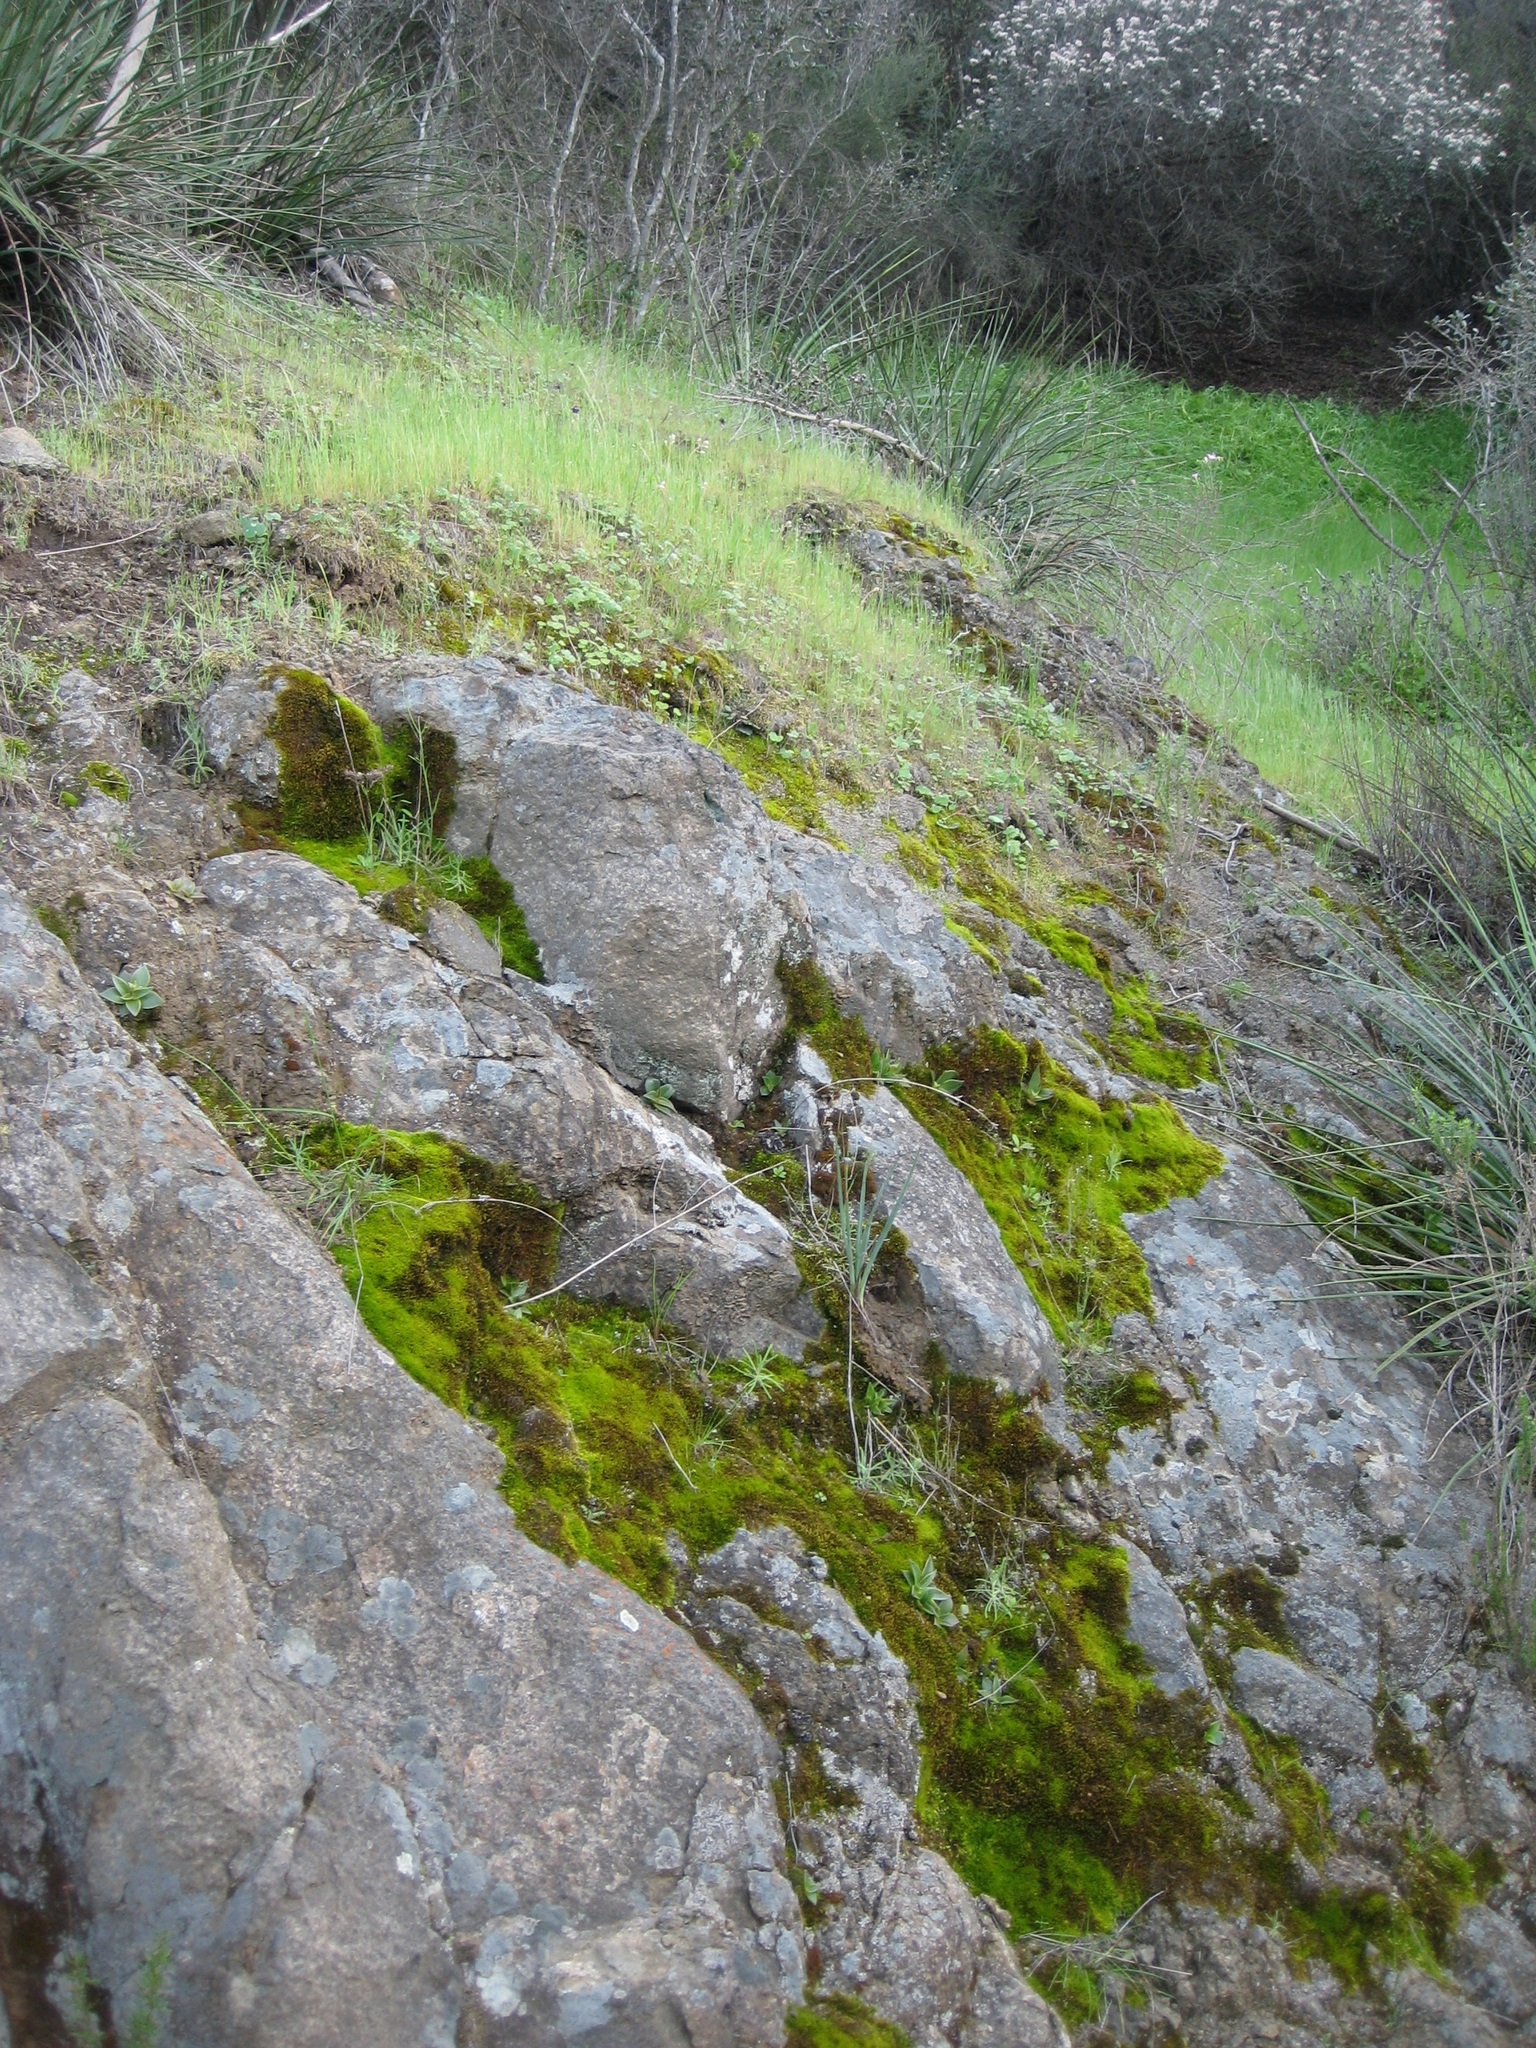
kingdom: Plantae
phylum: Tracheophyta
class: Liliopsida
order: Asparagales
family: Asparagaceae
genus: Hesperoyucca
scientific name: Hesperoyucca whipplei
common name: Our lord's-candle
